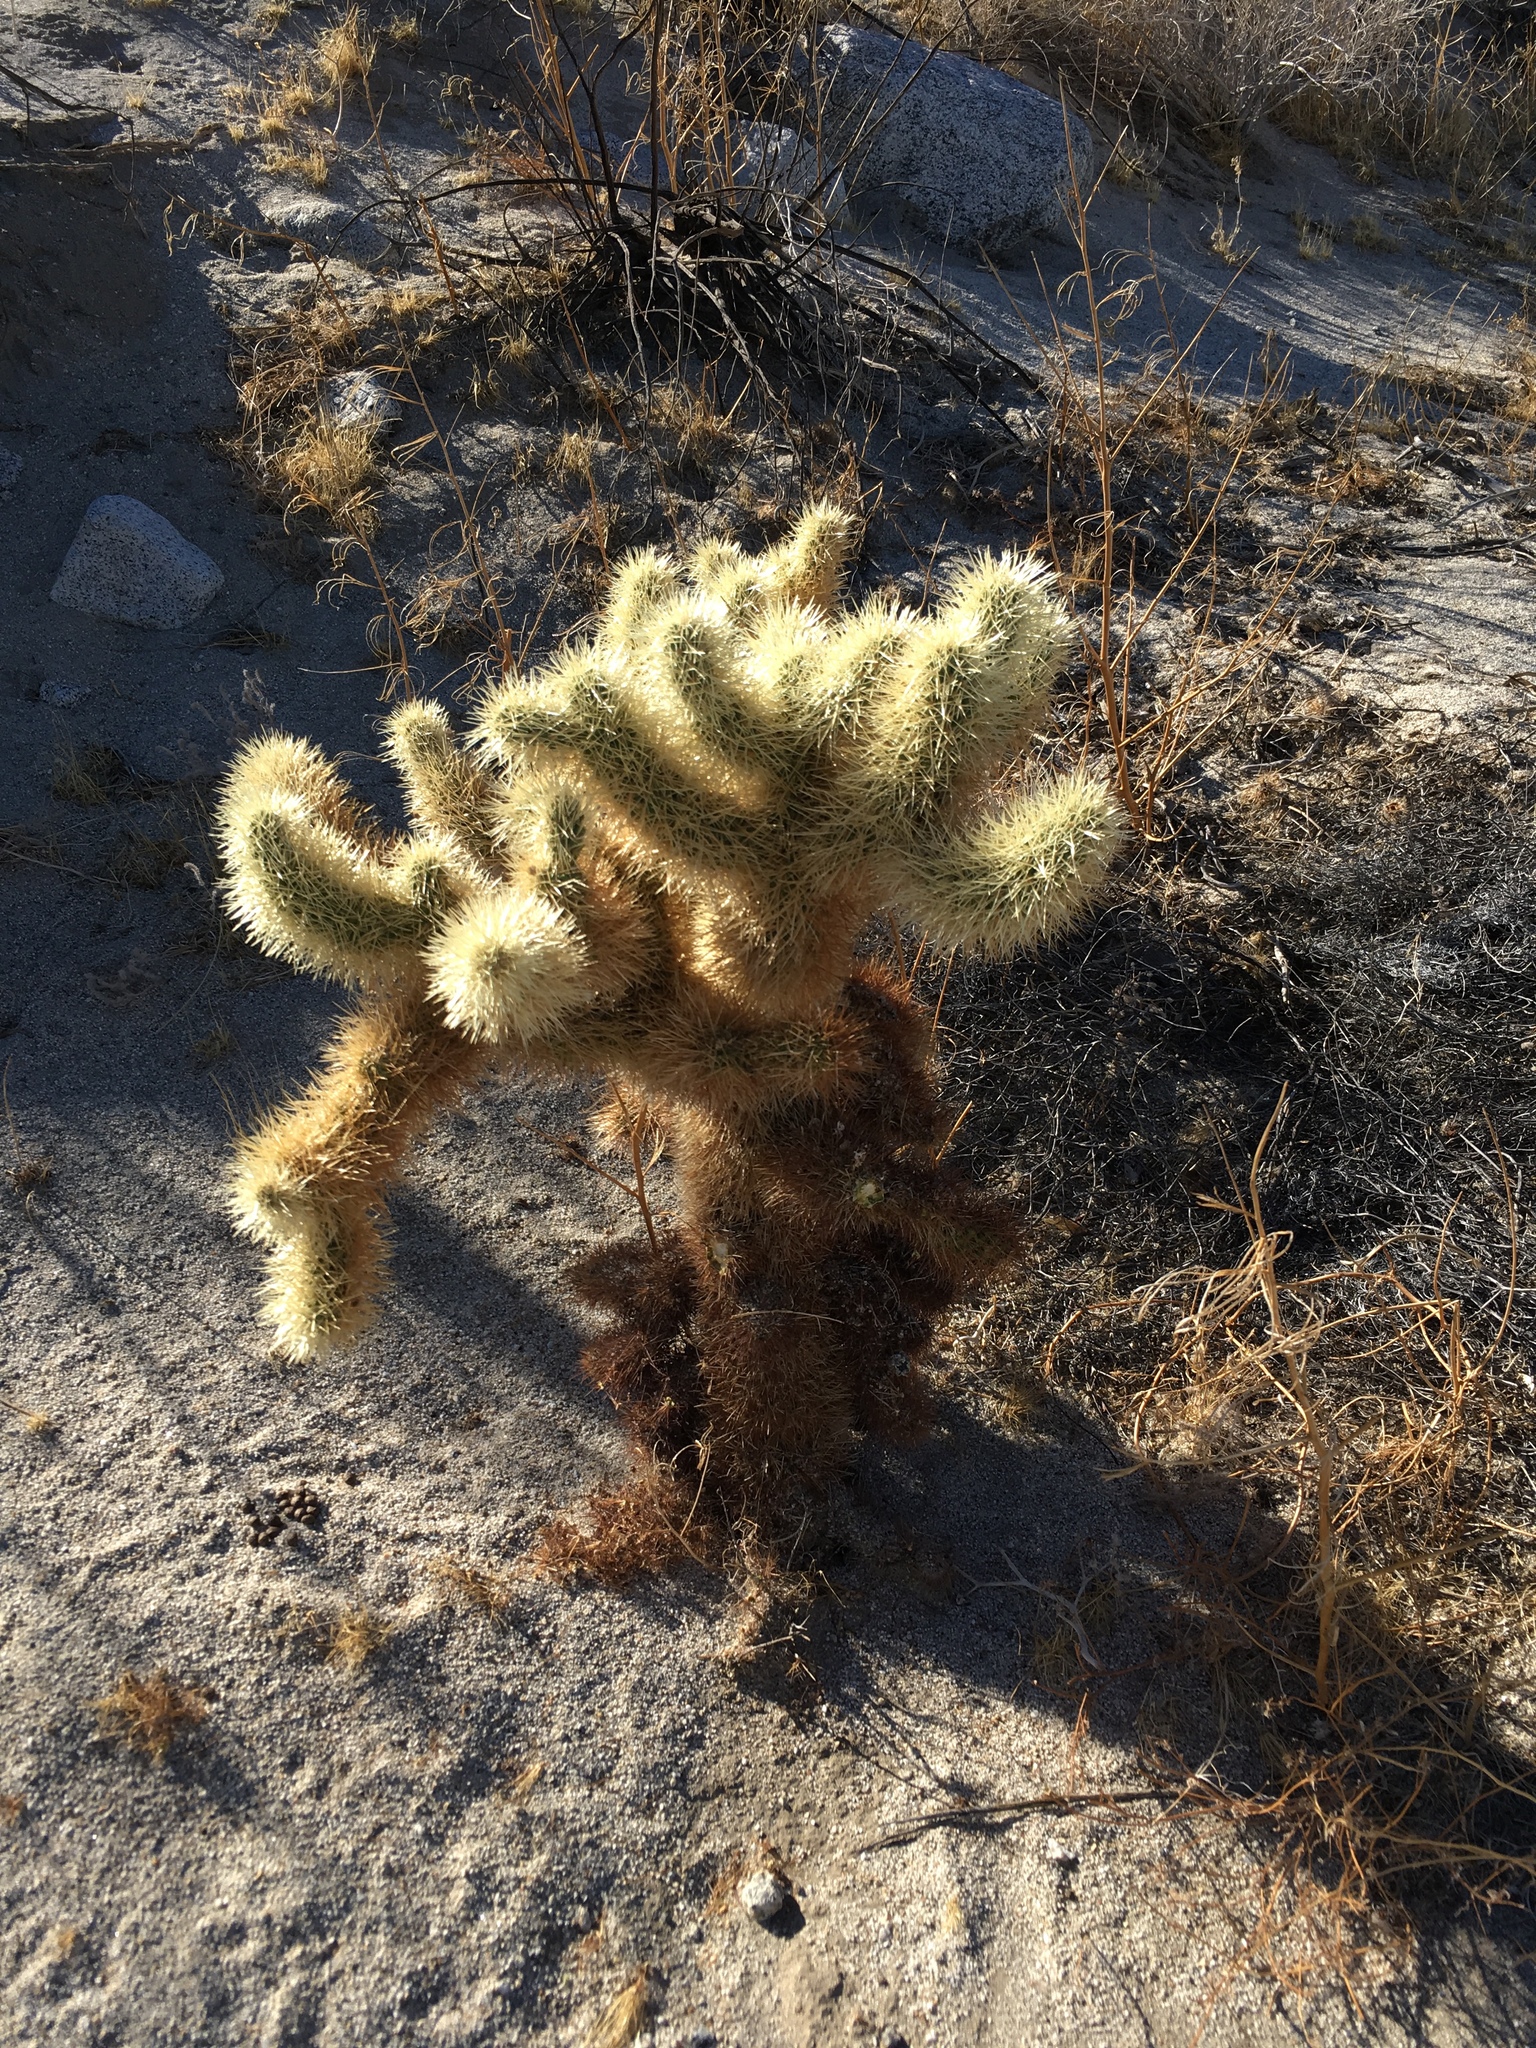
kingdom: Plantae
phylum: Tracheophyta
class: Magnoliopsida
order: Caryophyllales
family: Cactaceae
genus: Cylindropuntia
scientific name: Cylindropuntia fosbergii
